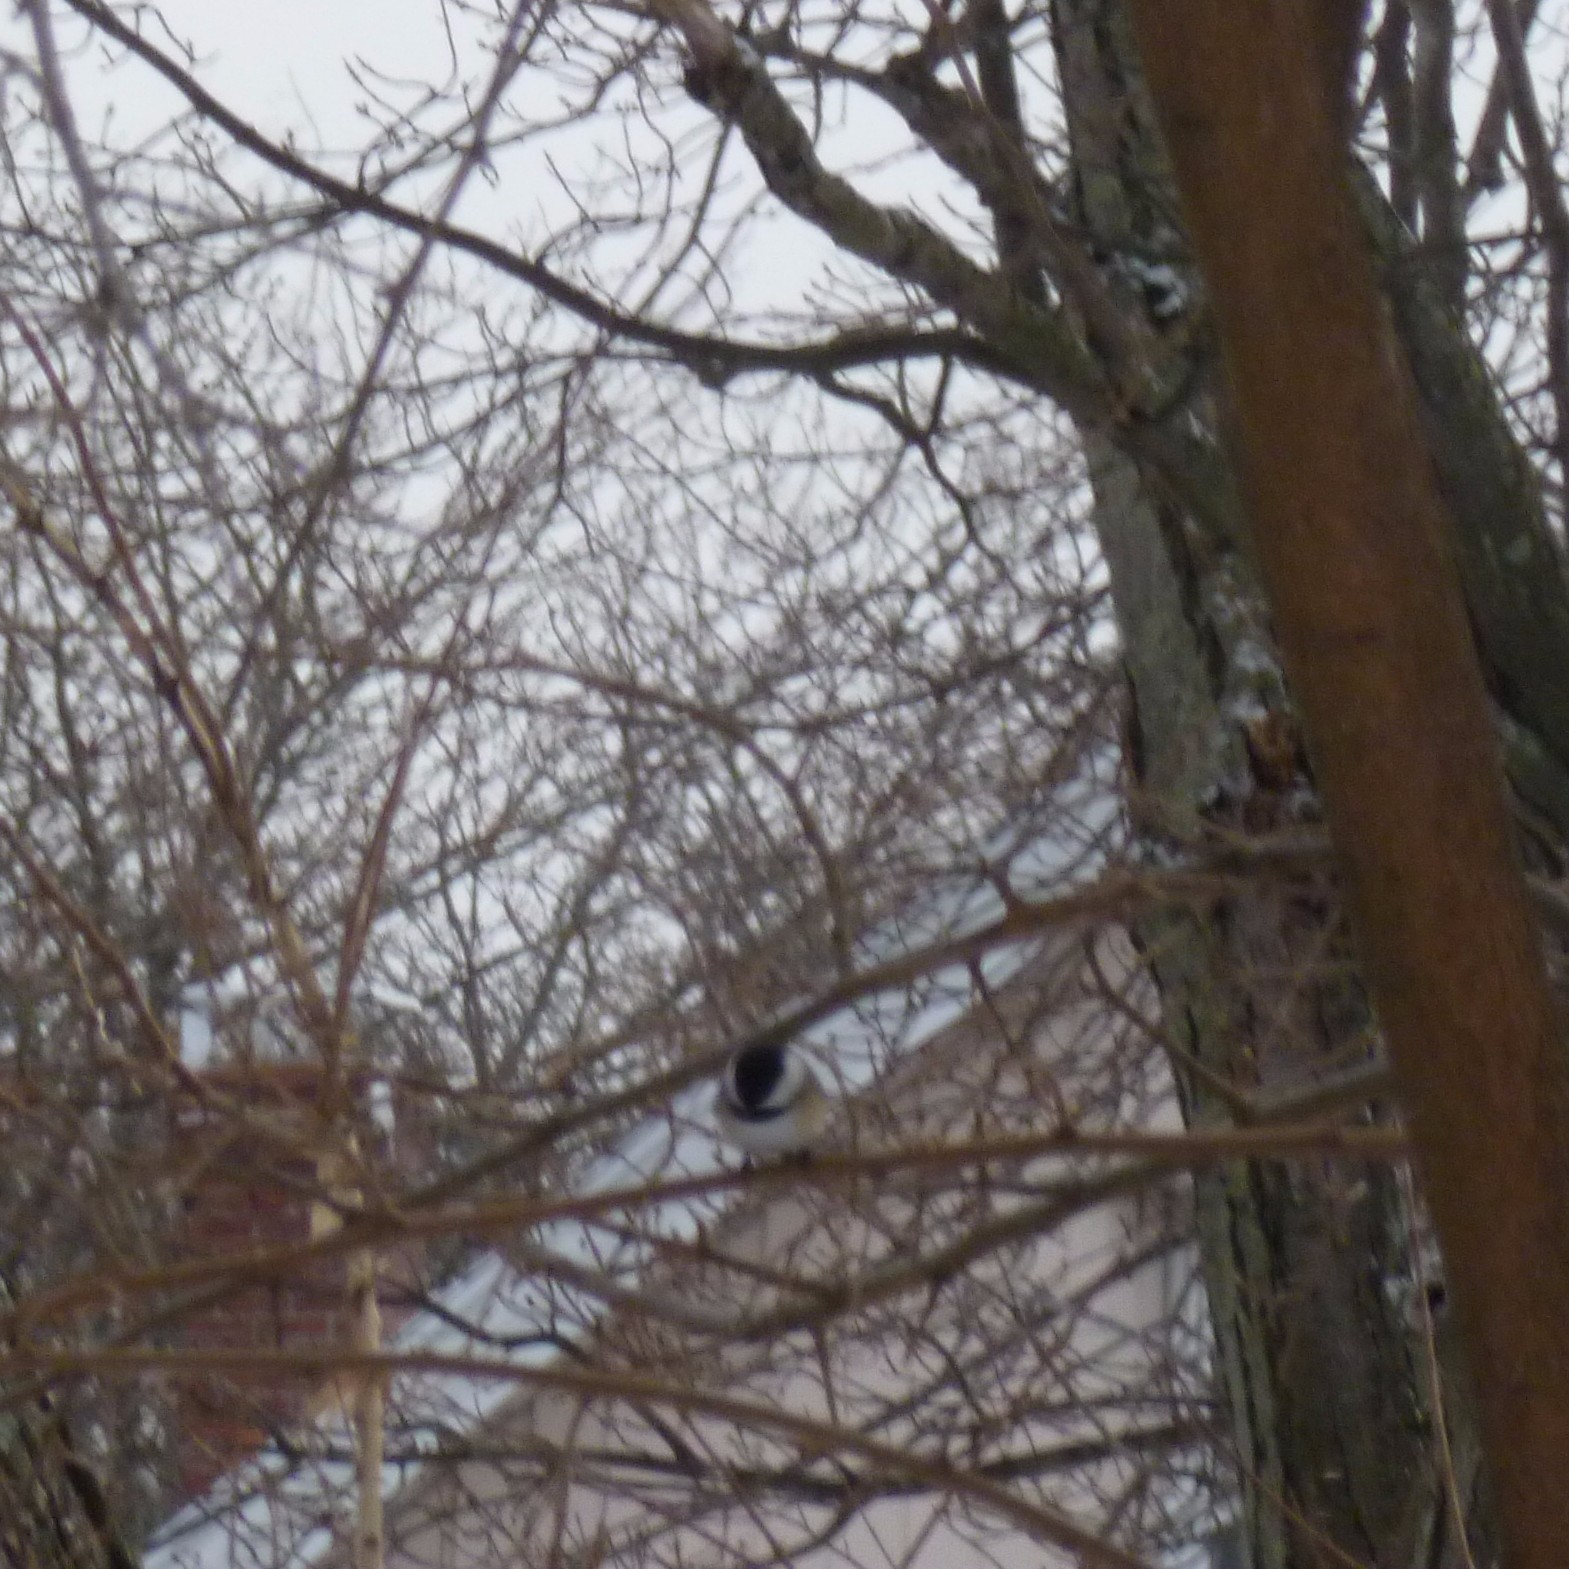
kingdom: Animalia
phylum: Chordata
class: Aves
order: Passeriformes
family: Paridae
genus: Poecile
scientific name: Poecile atricapillus
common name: Black-capped chickadee
